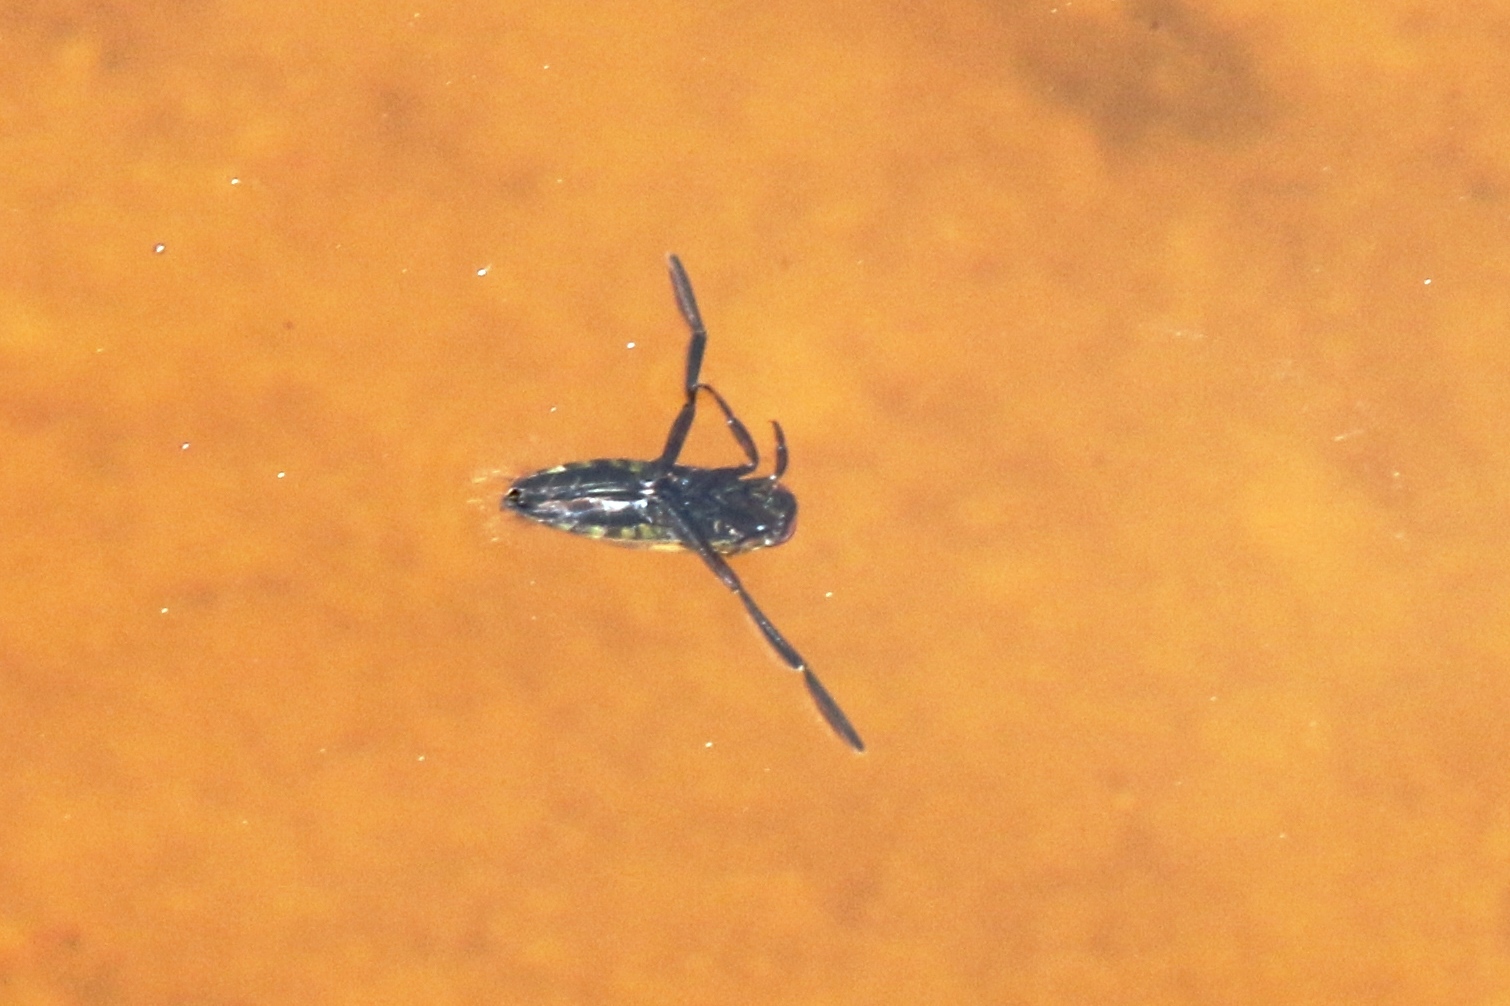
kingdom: Animalia
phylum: Arthropoda
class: Insecta
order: Hemiptera
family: Notonectidae
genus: Notonecta
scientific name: Notonecta
